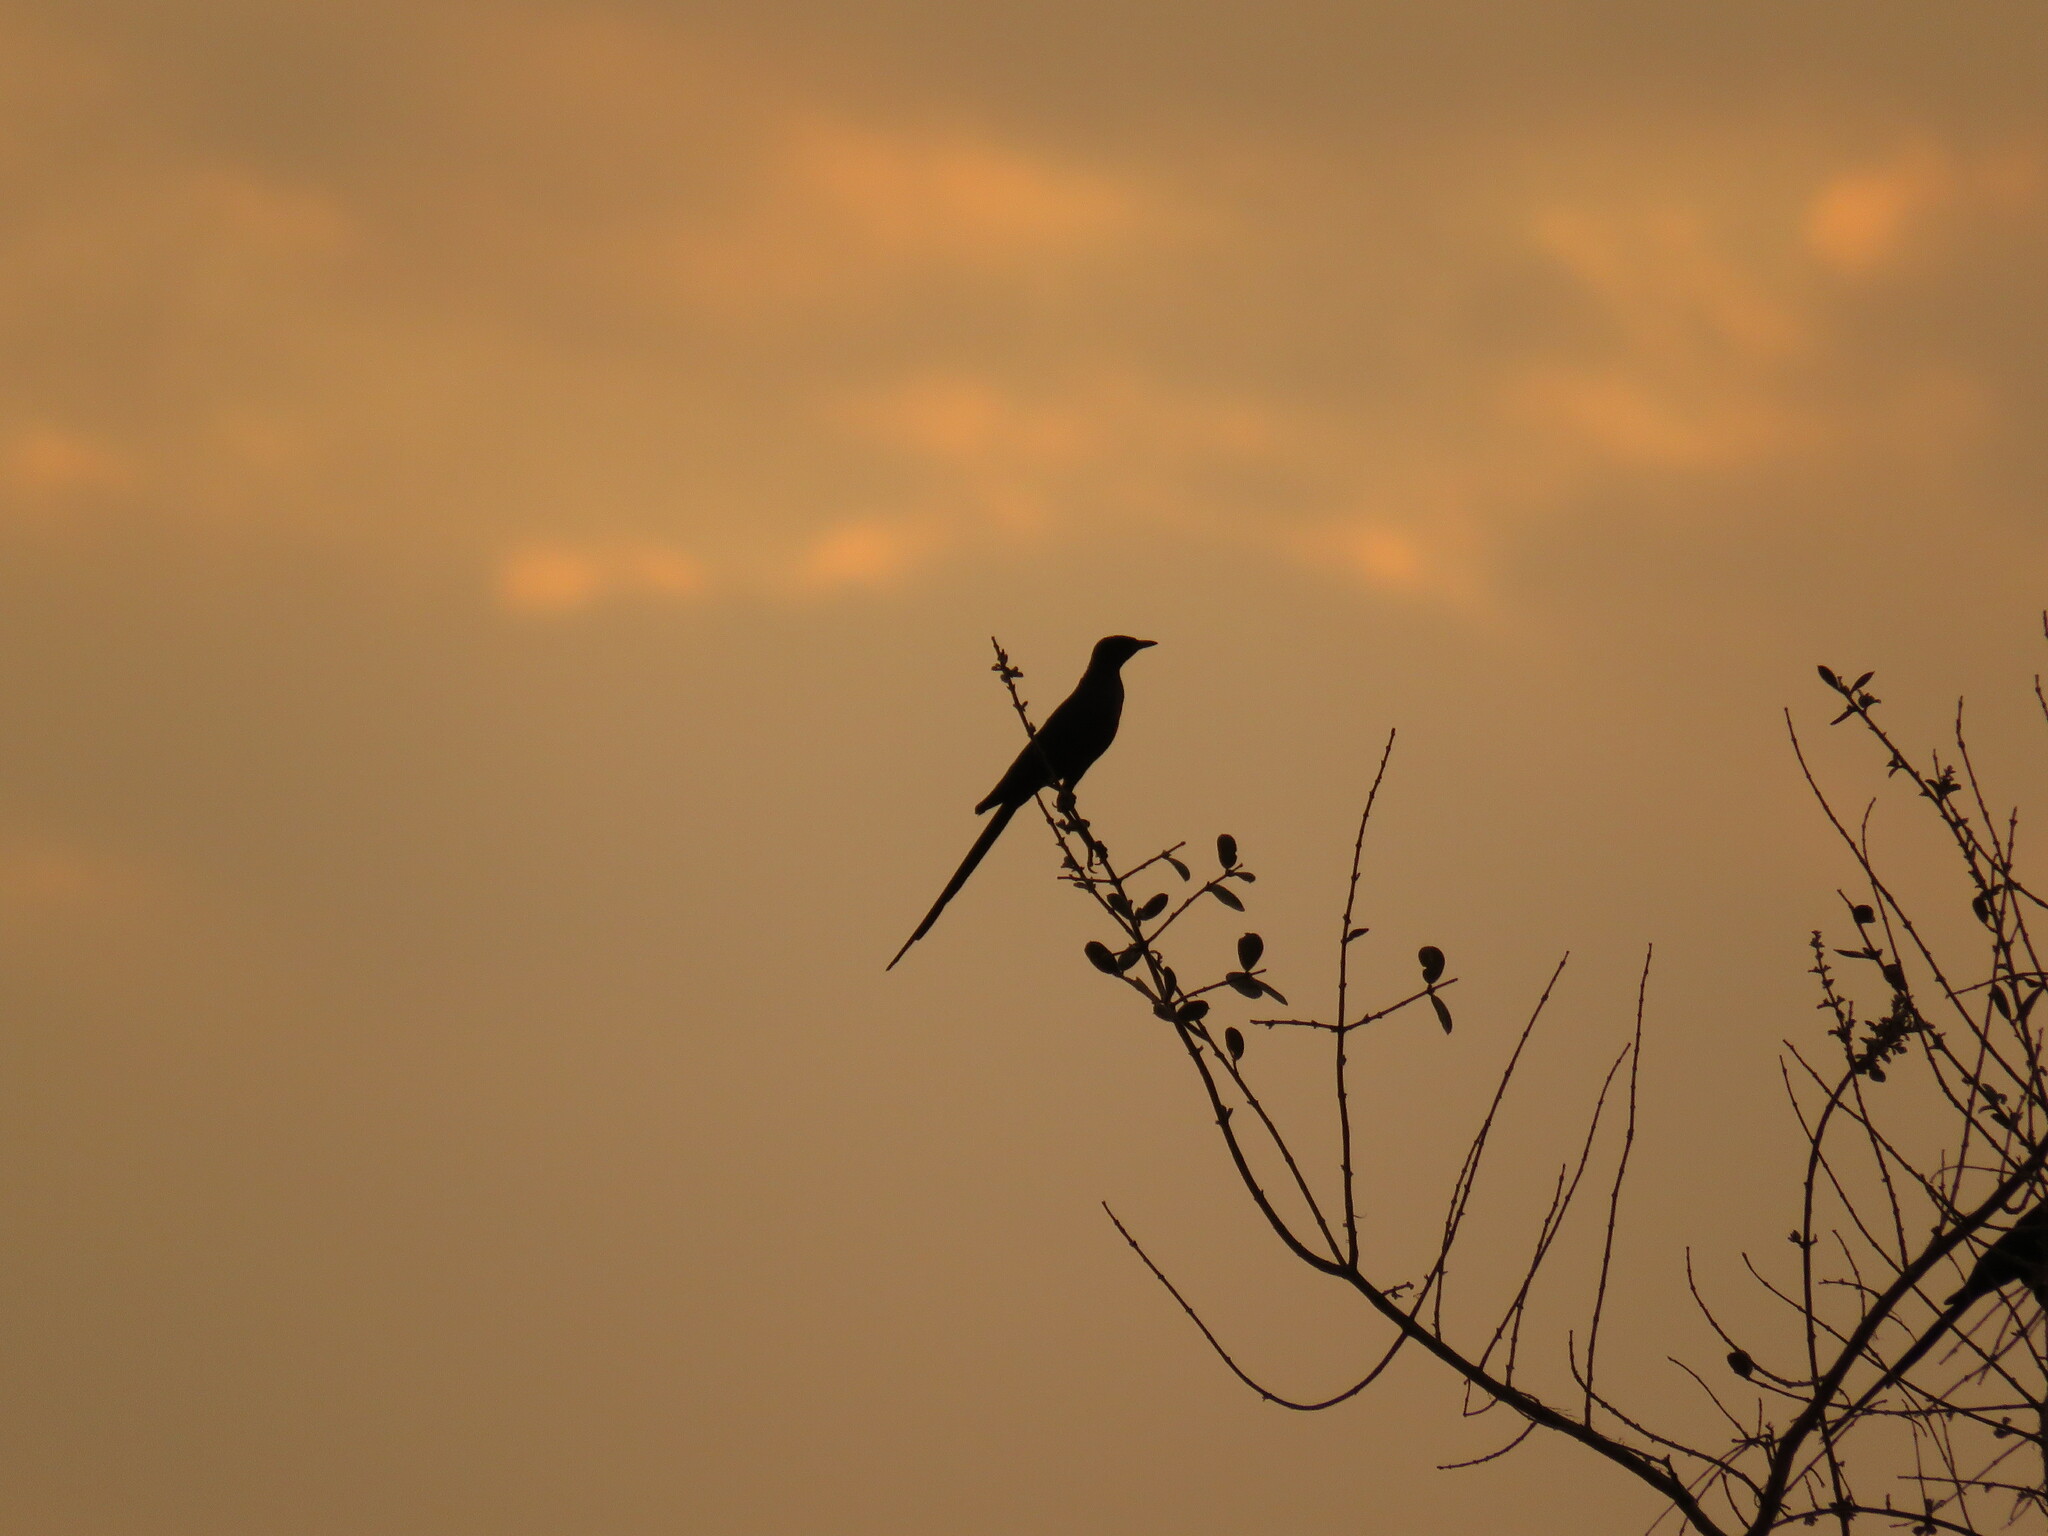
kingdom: Animalia
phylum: Chordata
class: Aves
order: Passeriformes
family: Sturnidae
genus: Lamprotornis
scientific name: Lamprotornis mevesii
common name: Meves's starling
